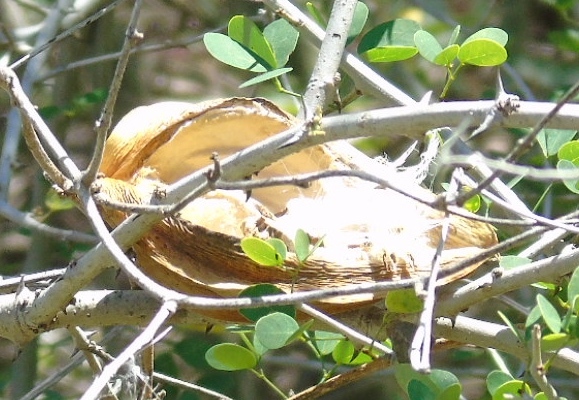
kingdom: Plantae
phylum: Tracheophyta
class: Magnoliopsida
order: Gentianales
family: Apocynaceae
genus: Gonolobus
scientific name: Gonolobus naturalistae
